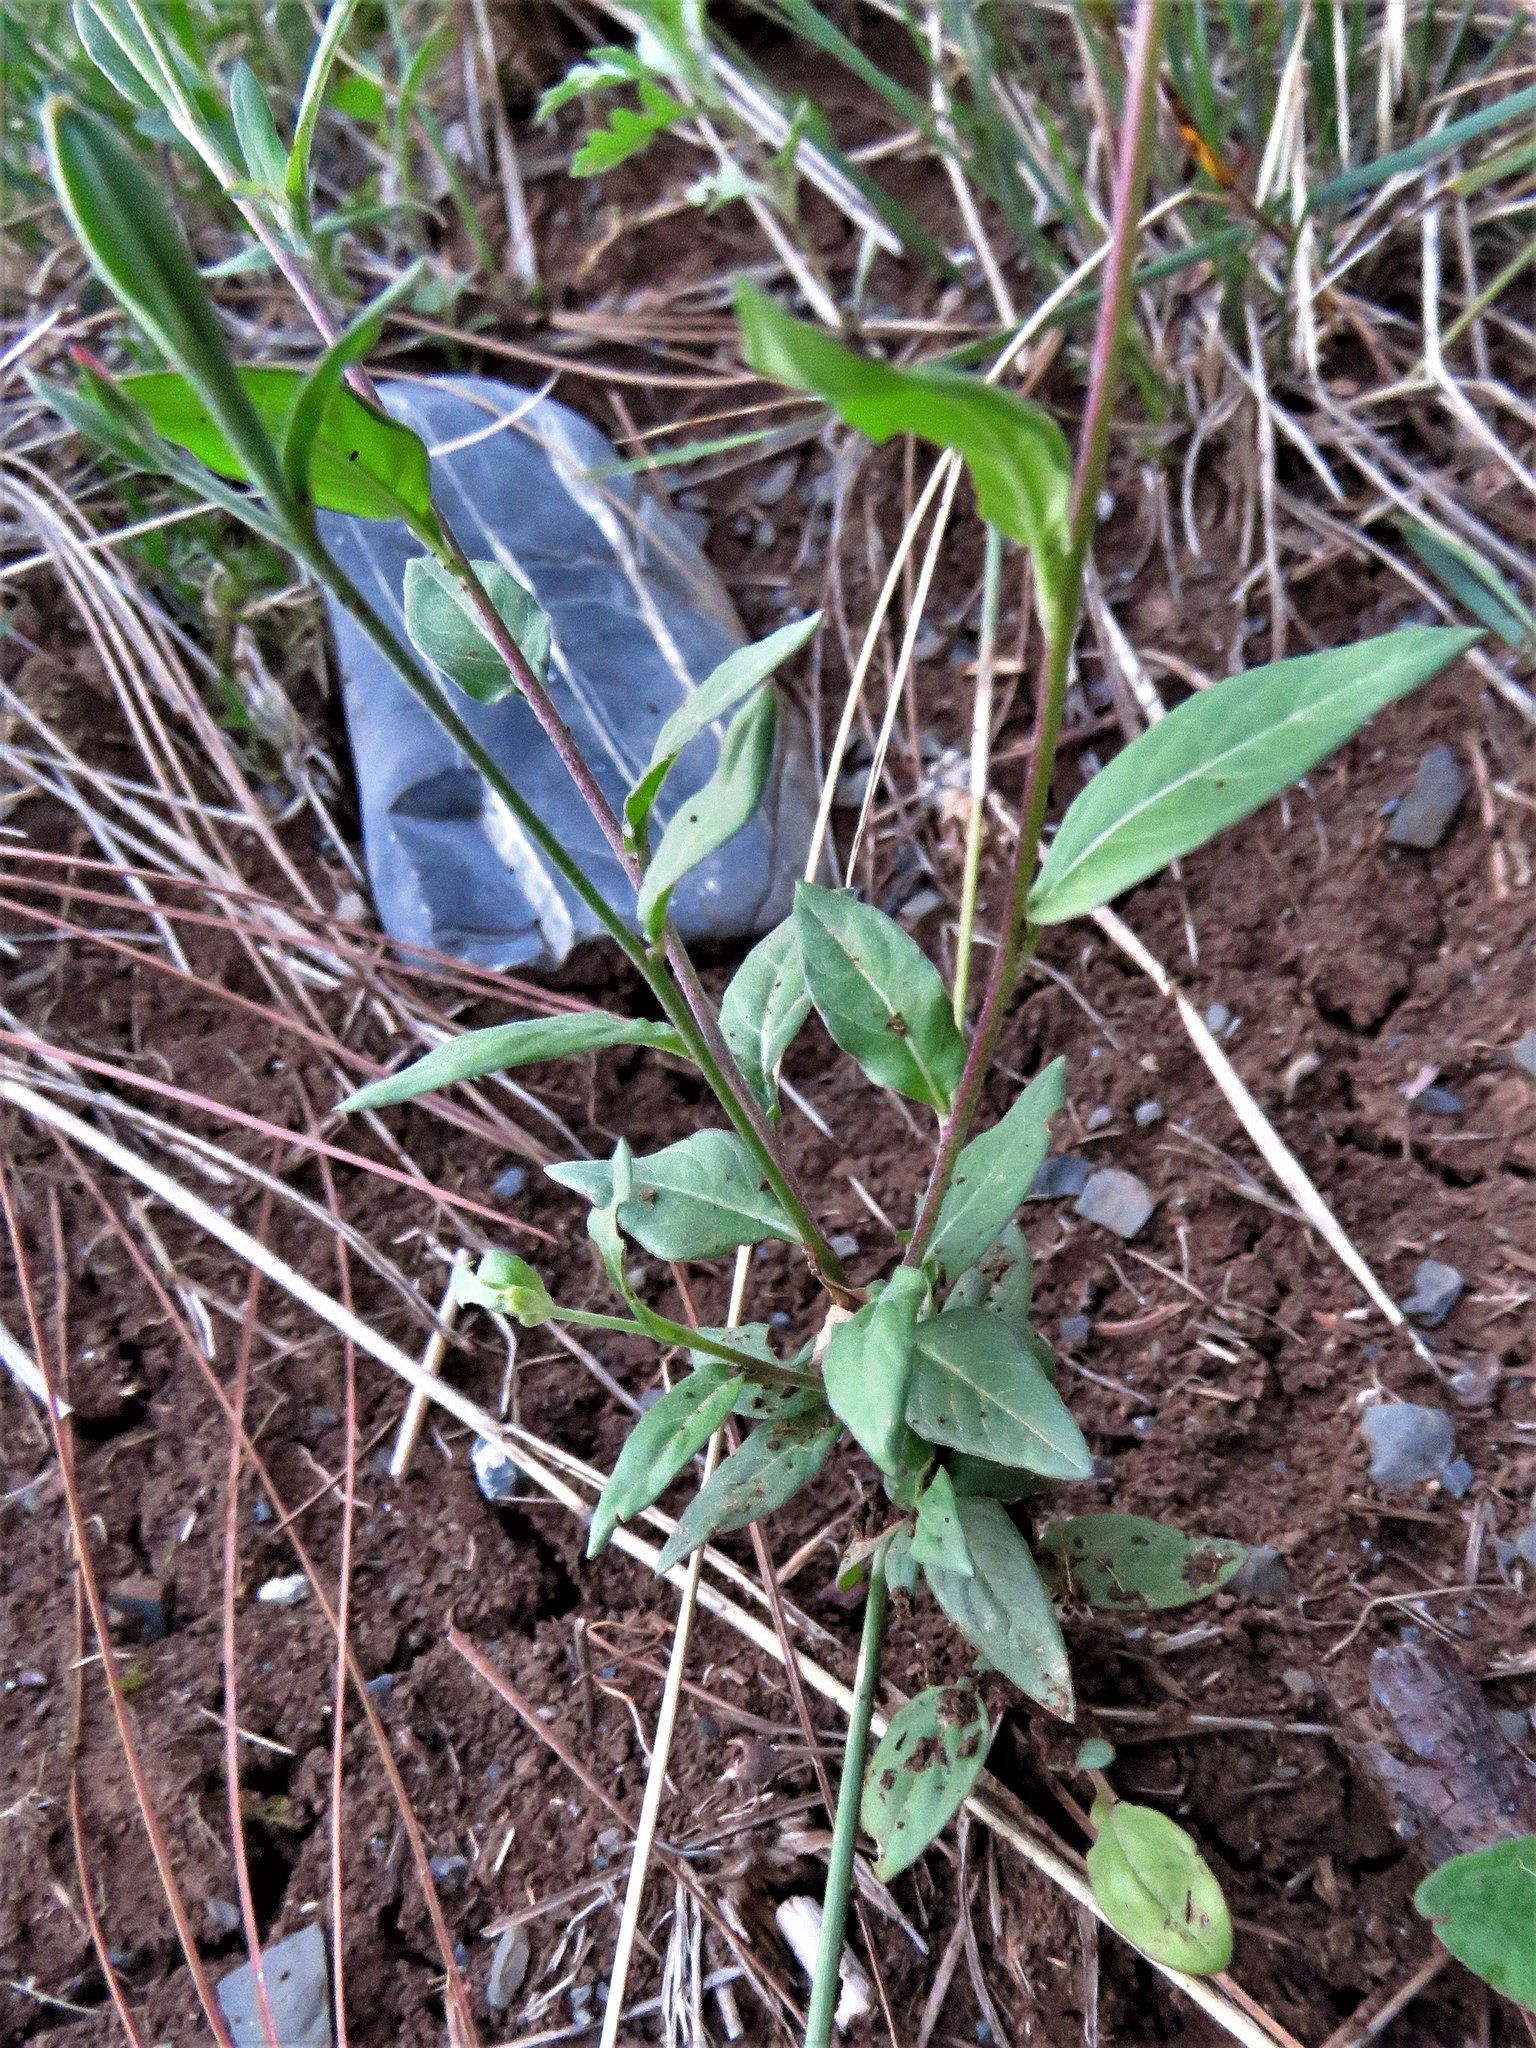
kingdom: Plantae
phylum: Tracheophyta
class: Magnoliopsida
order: Myrtales
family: Onagraceae
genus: Oenothera
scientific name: Oenothera rosea
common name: Rosy evening-primrose
